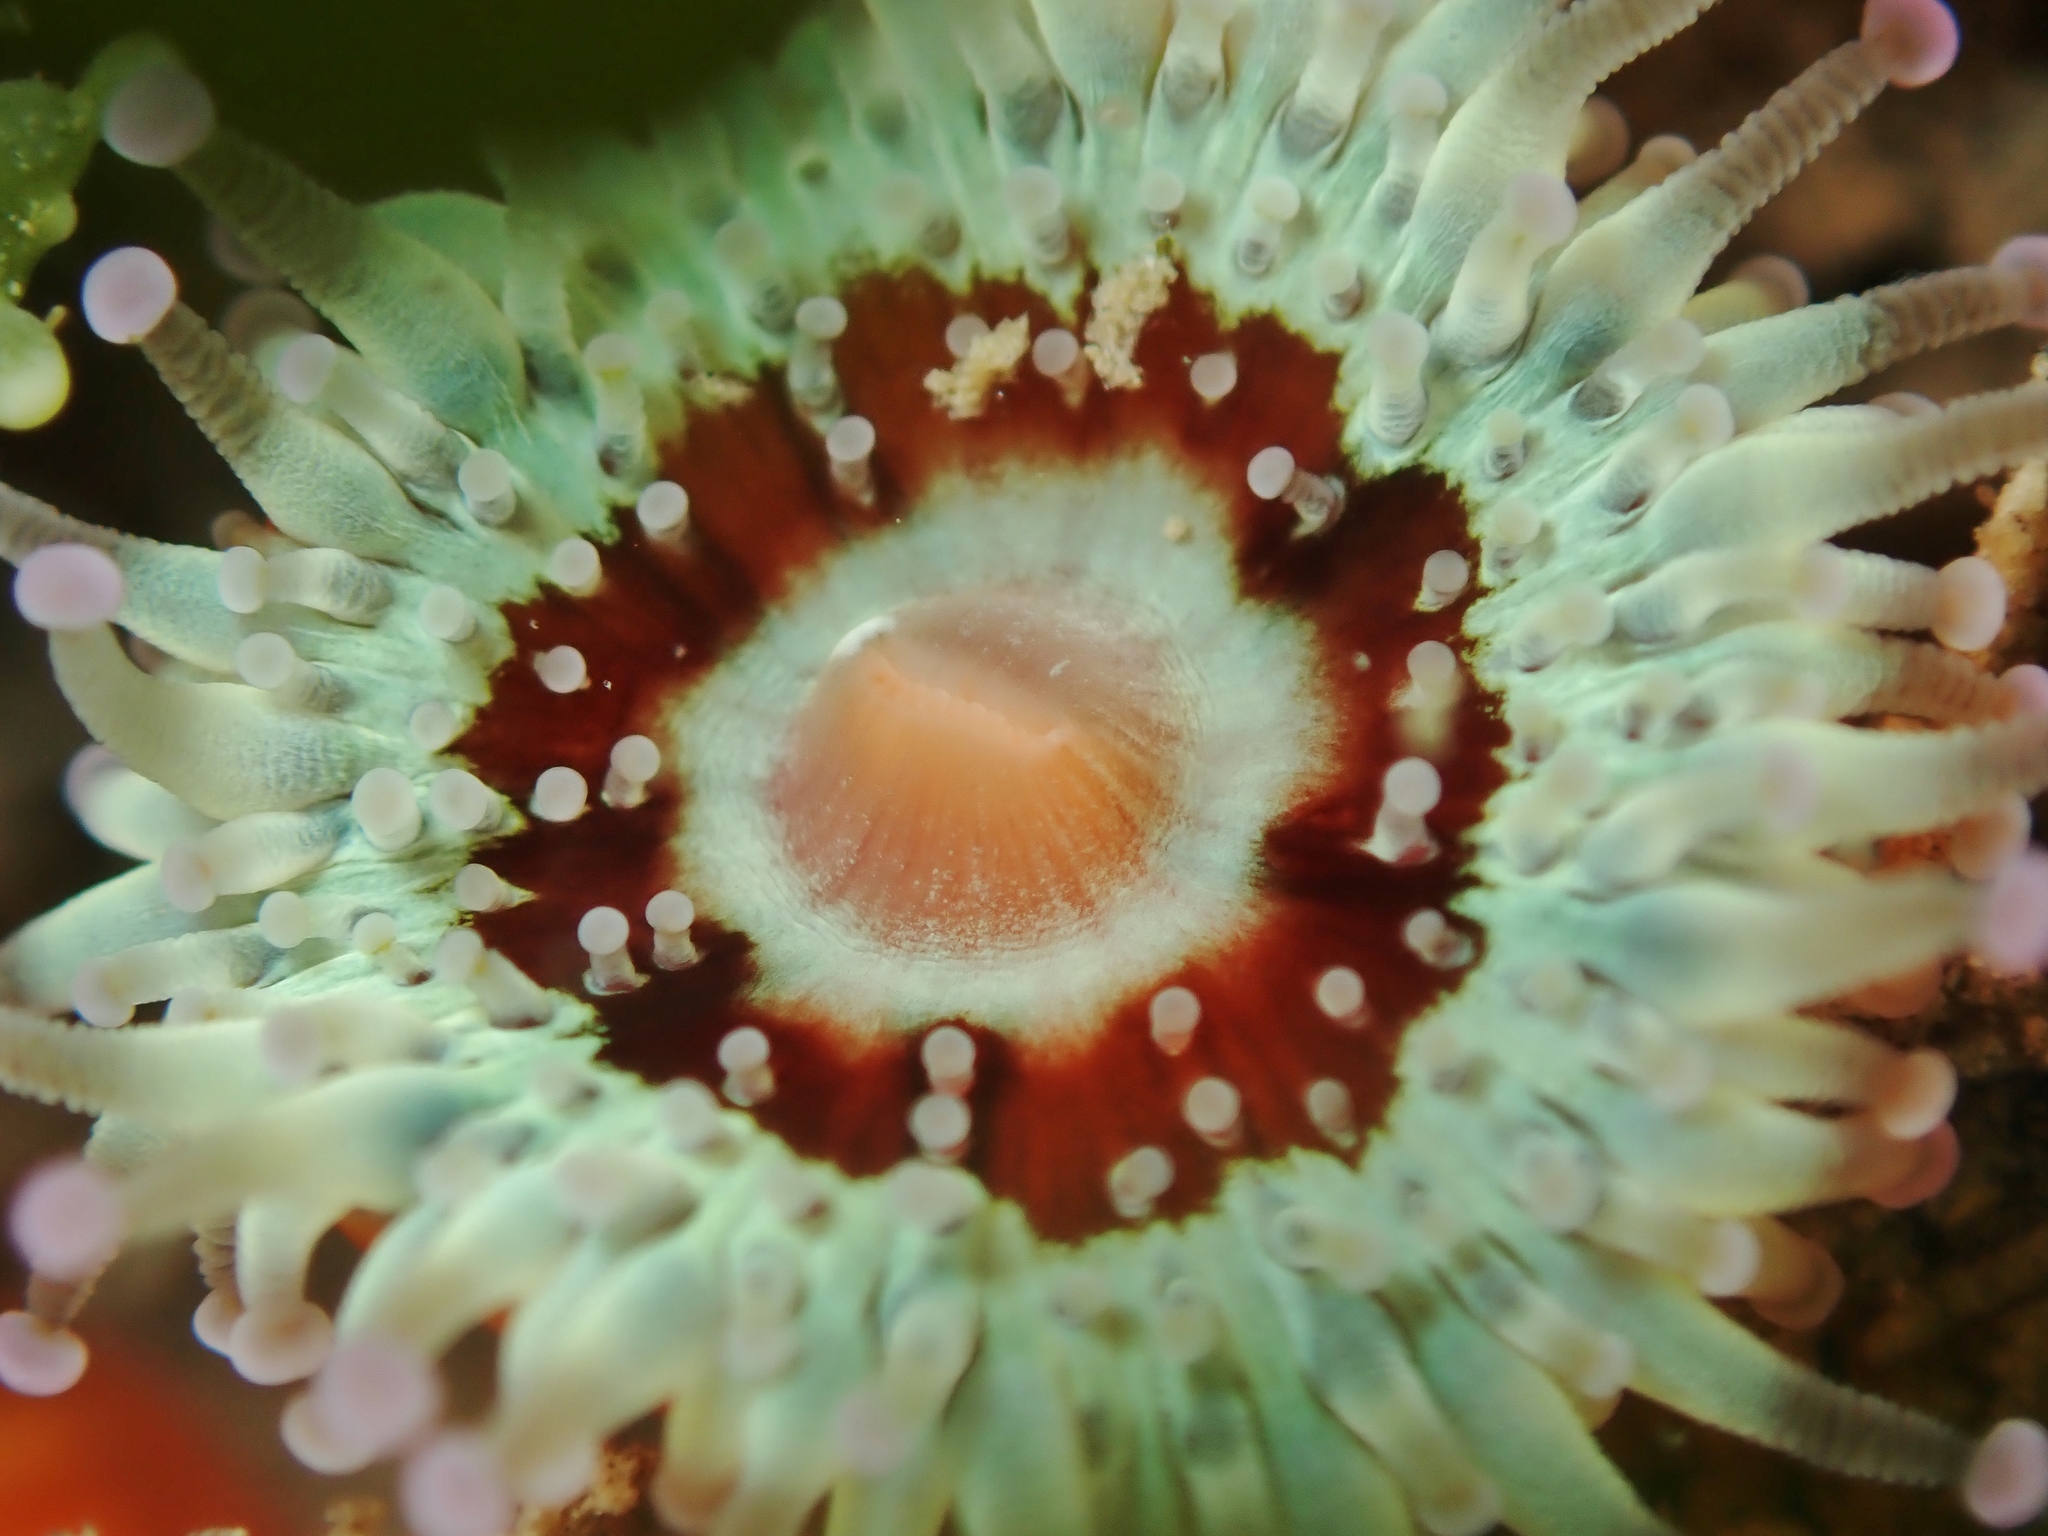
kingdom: Animalia
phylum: Cnidaria
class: Anthozoa
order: Corallimorpharia
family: Corallimorphidae
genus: Corynactis
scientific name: Corynactis australis
